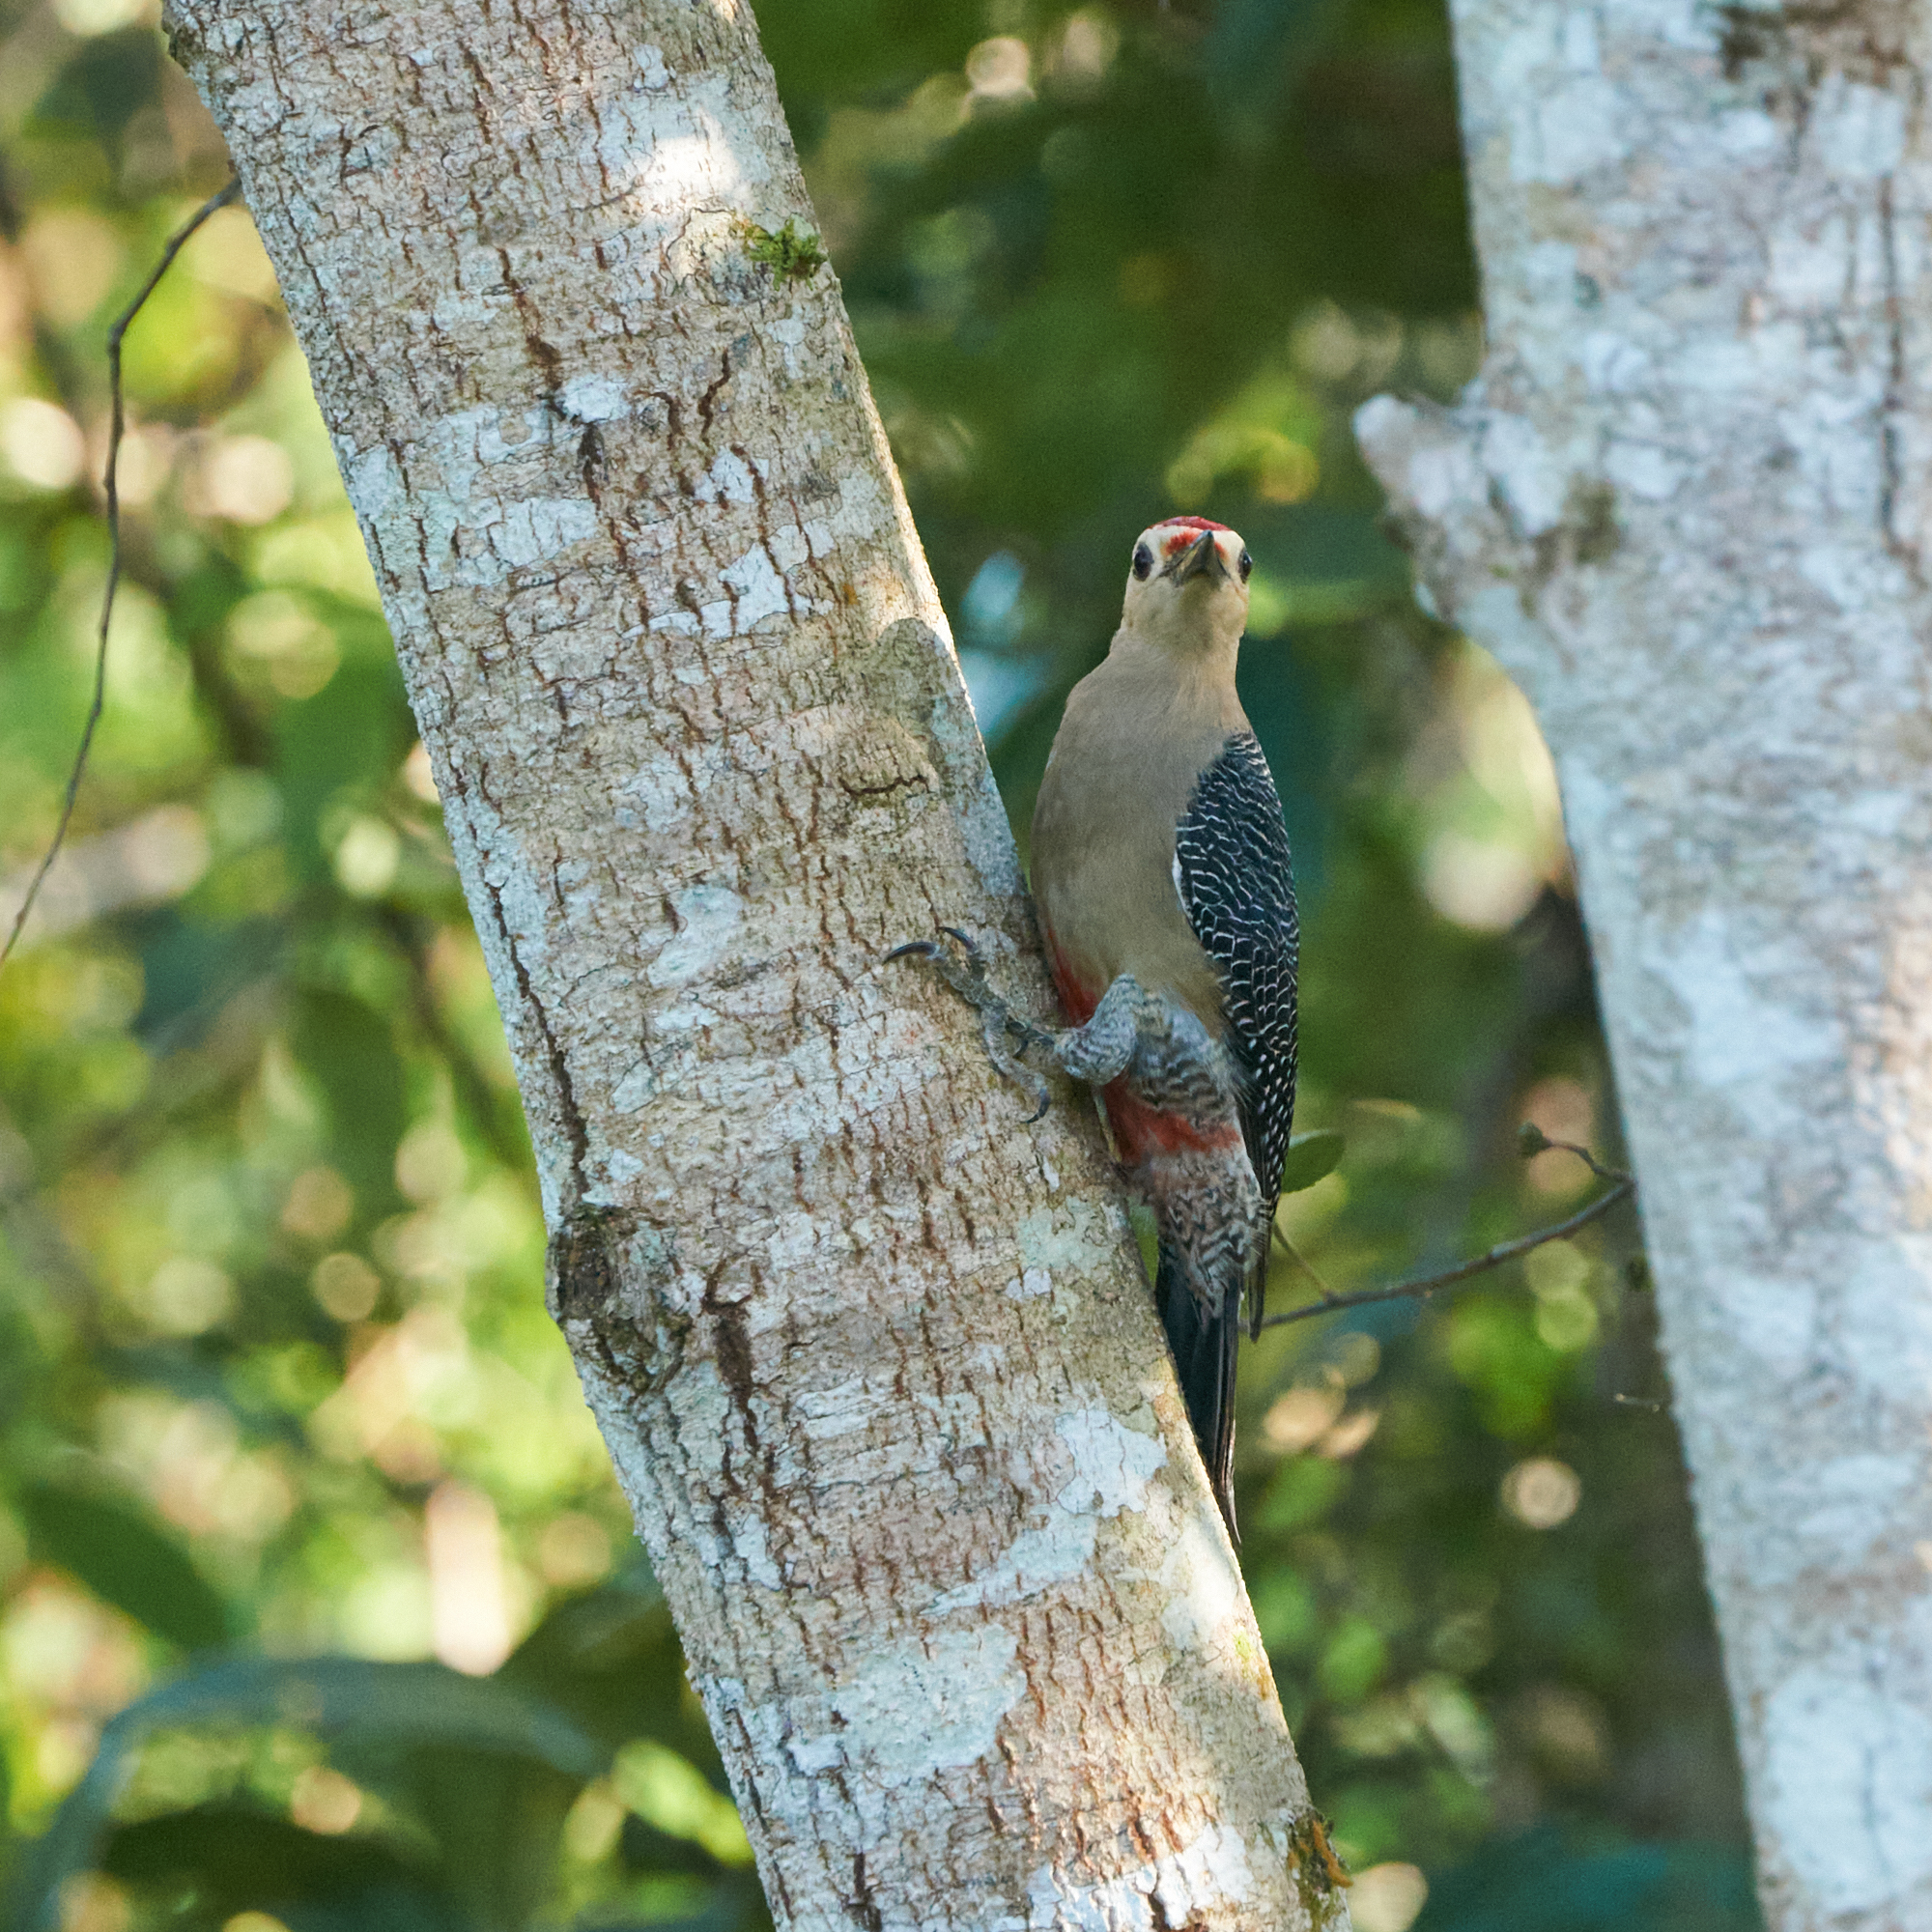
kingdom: Animalia
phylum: Chordata
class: Aves
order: Piciformes
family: Picidae
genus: Melanerpes
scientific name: Melanerpes aurifrons
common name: Golden-fronted woodpecker
